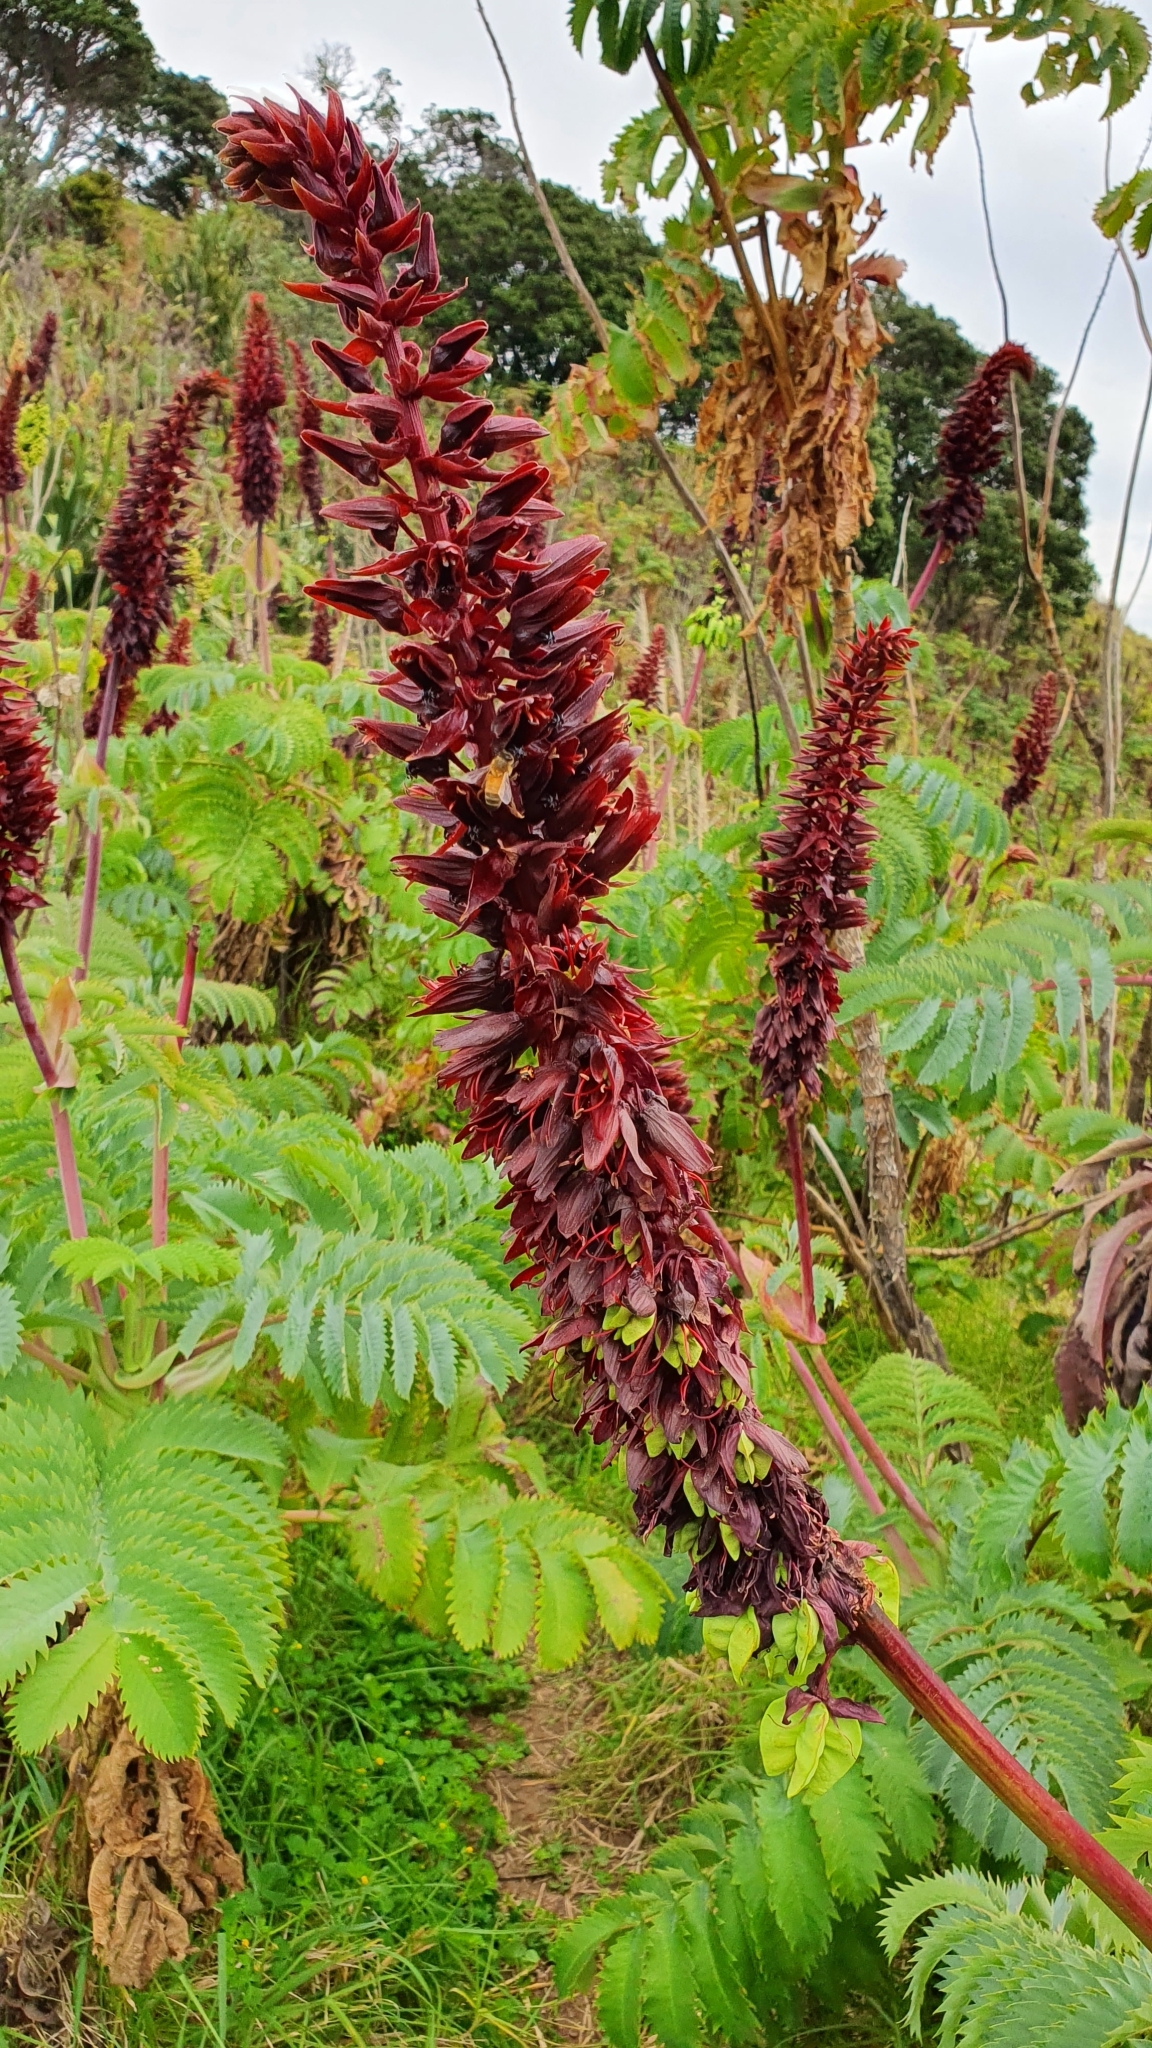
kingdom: Plantae
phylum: Tracheophyta
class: Magnoliopsida
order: Geraniales
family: Melianthaceae
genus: Melianthus
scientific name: Melianthus major
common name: Honey-flower
